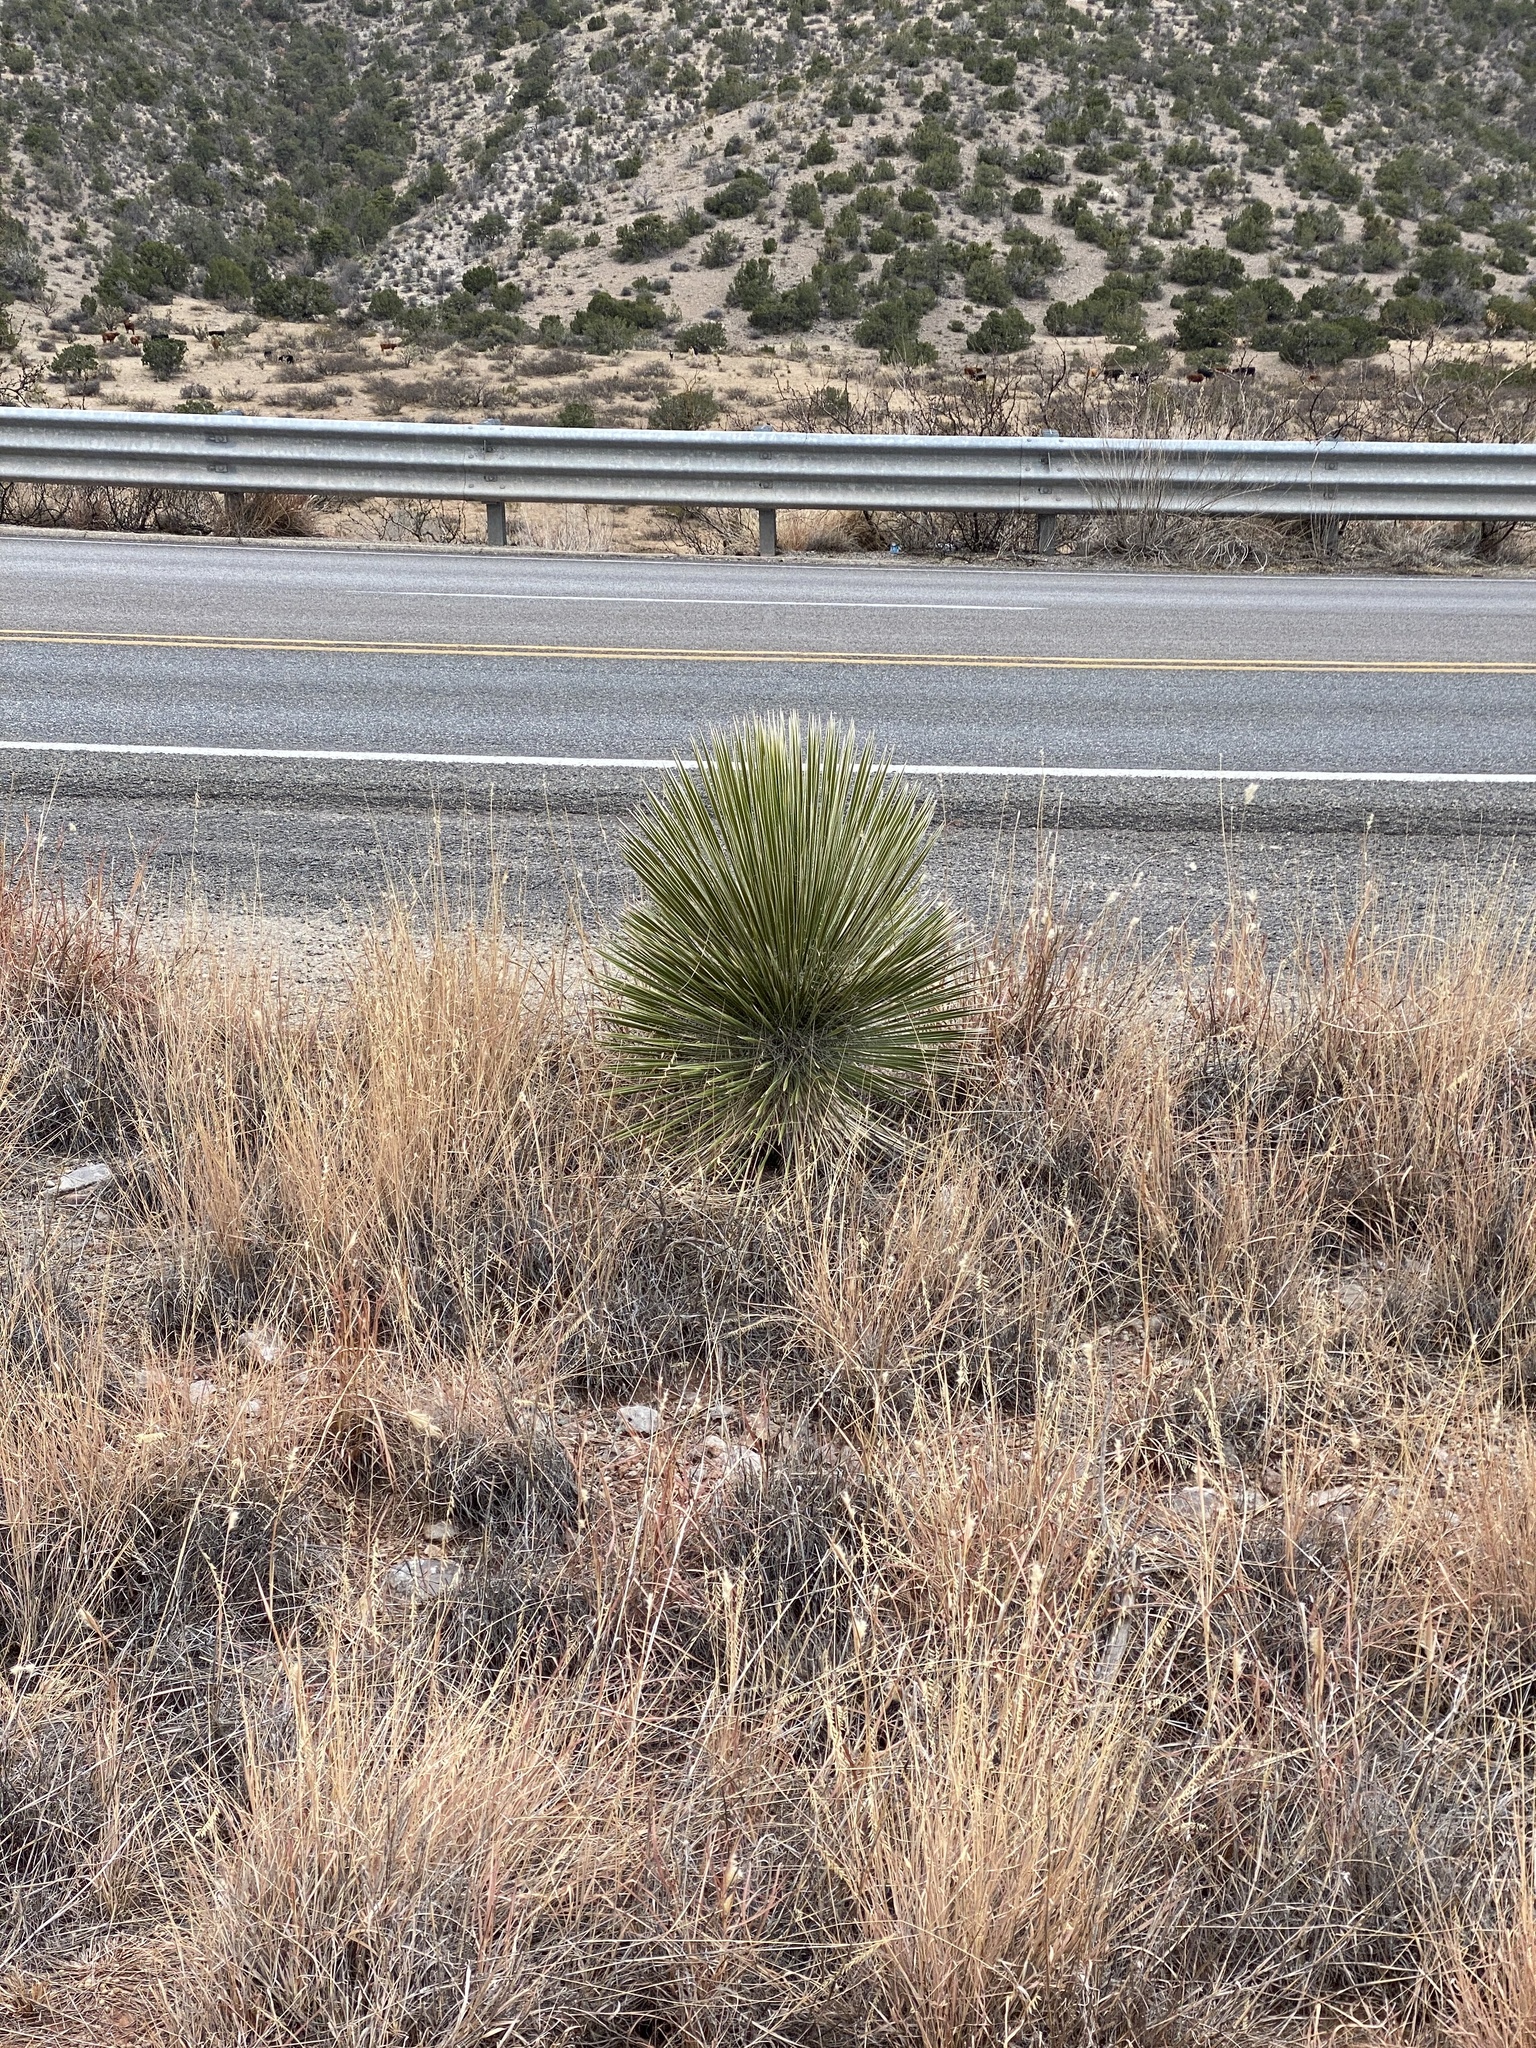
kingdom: Plantae
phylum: Tracheophyta
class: Liliopsida
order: Asparagales
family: Asparagaceae
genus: Yucca
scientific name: Yucca elata
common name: Palmella
